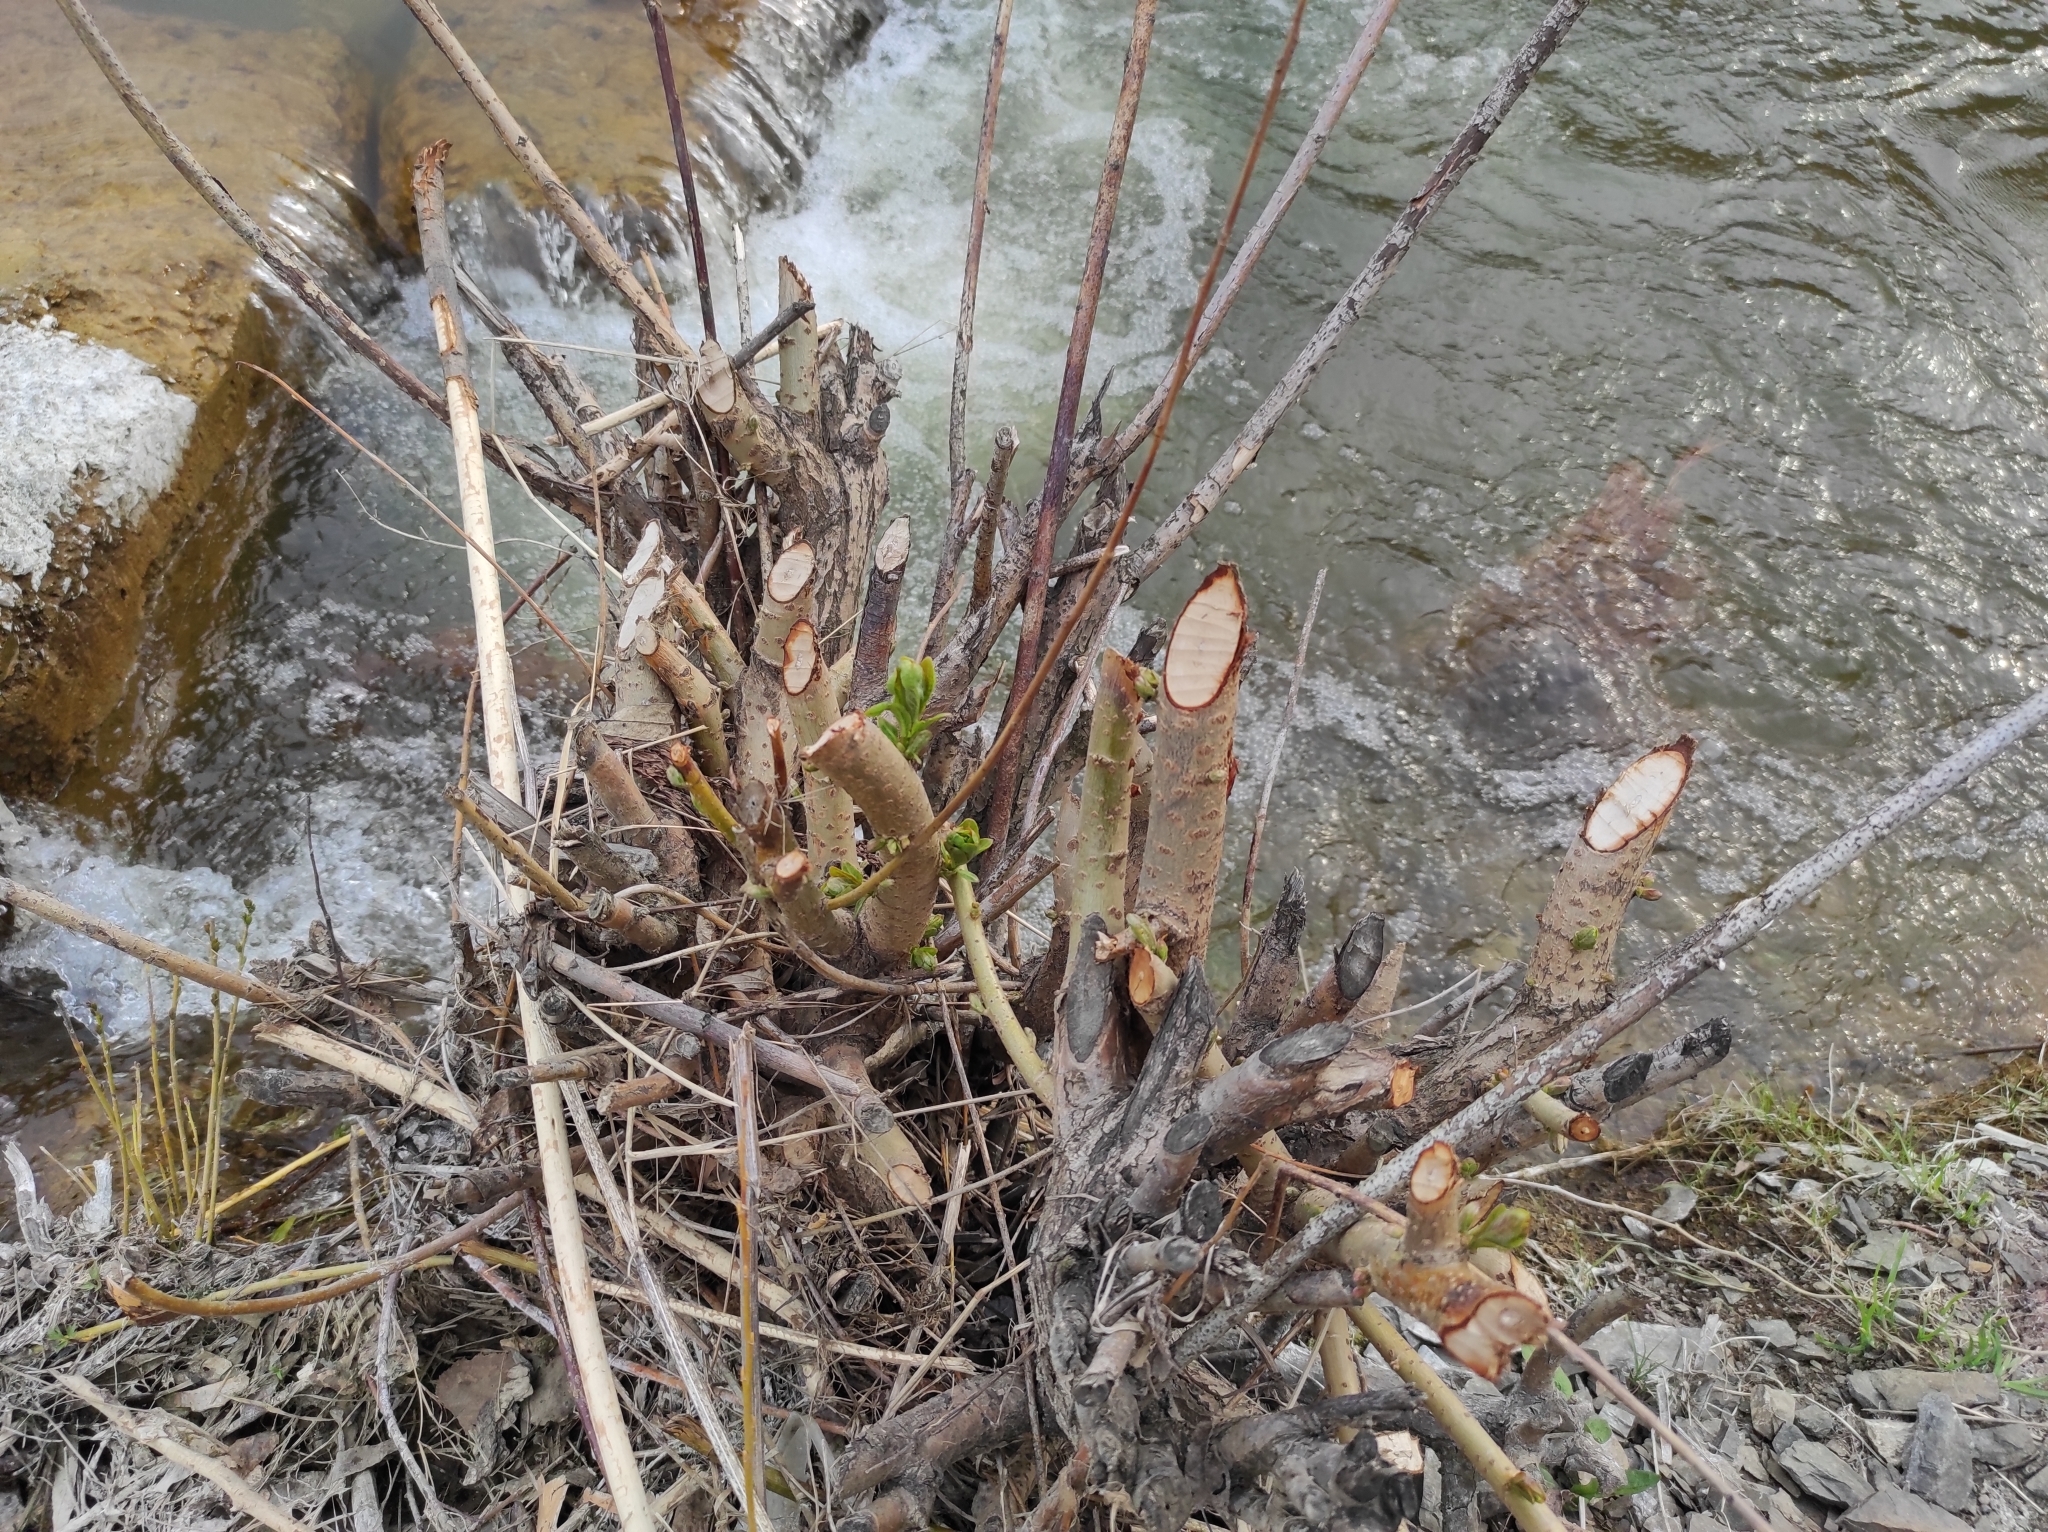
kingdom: Animalia
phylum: Chordata
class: Mammalia
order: Rodentia
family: Castoridae
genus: Castor
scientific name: Castor fiber
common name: Eurasian beaver
